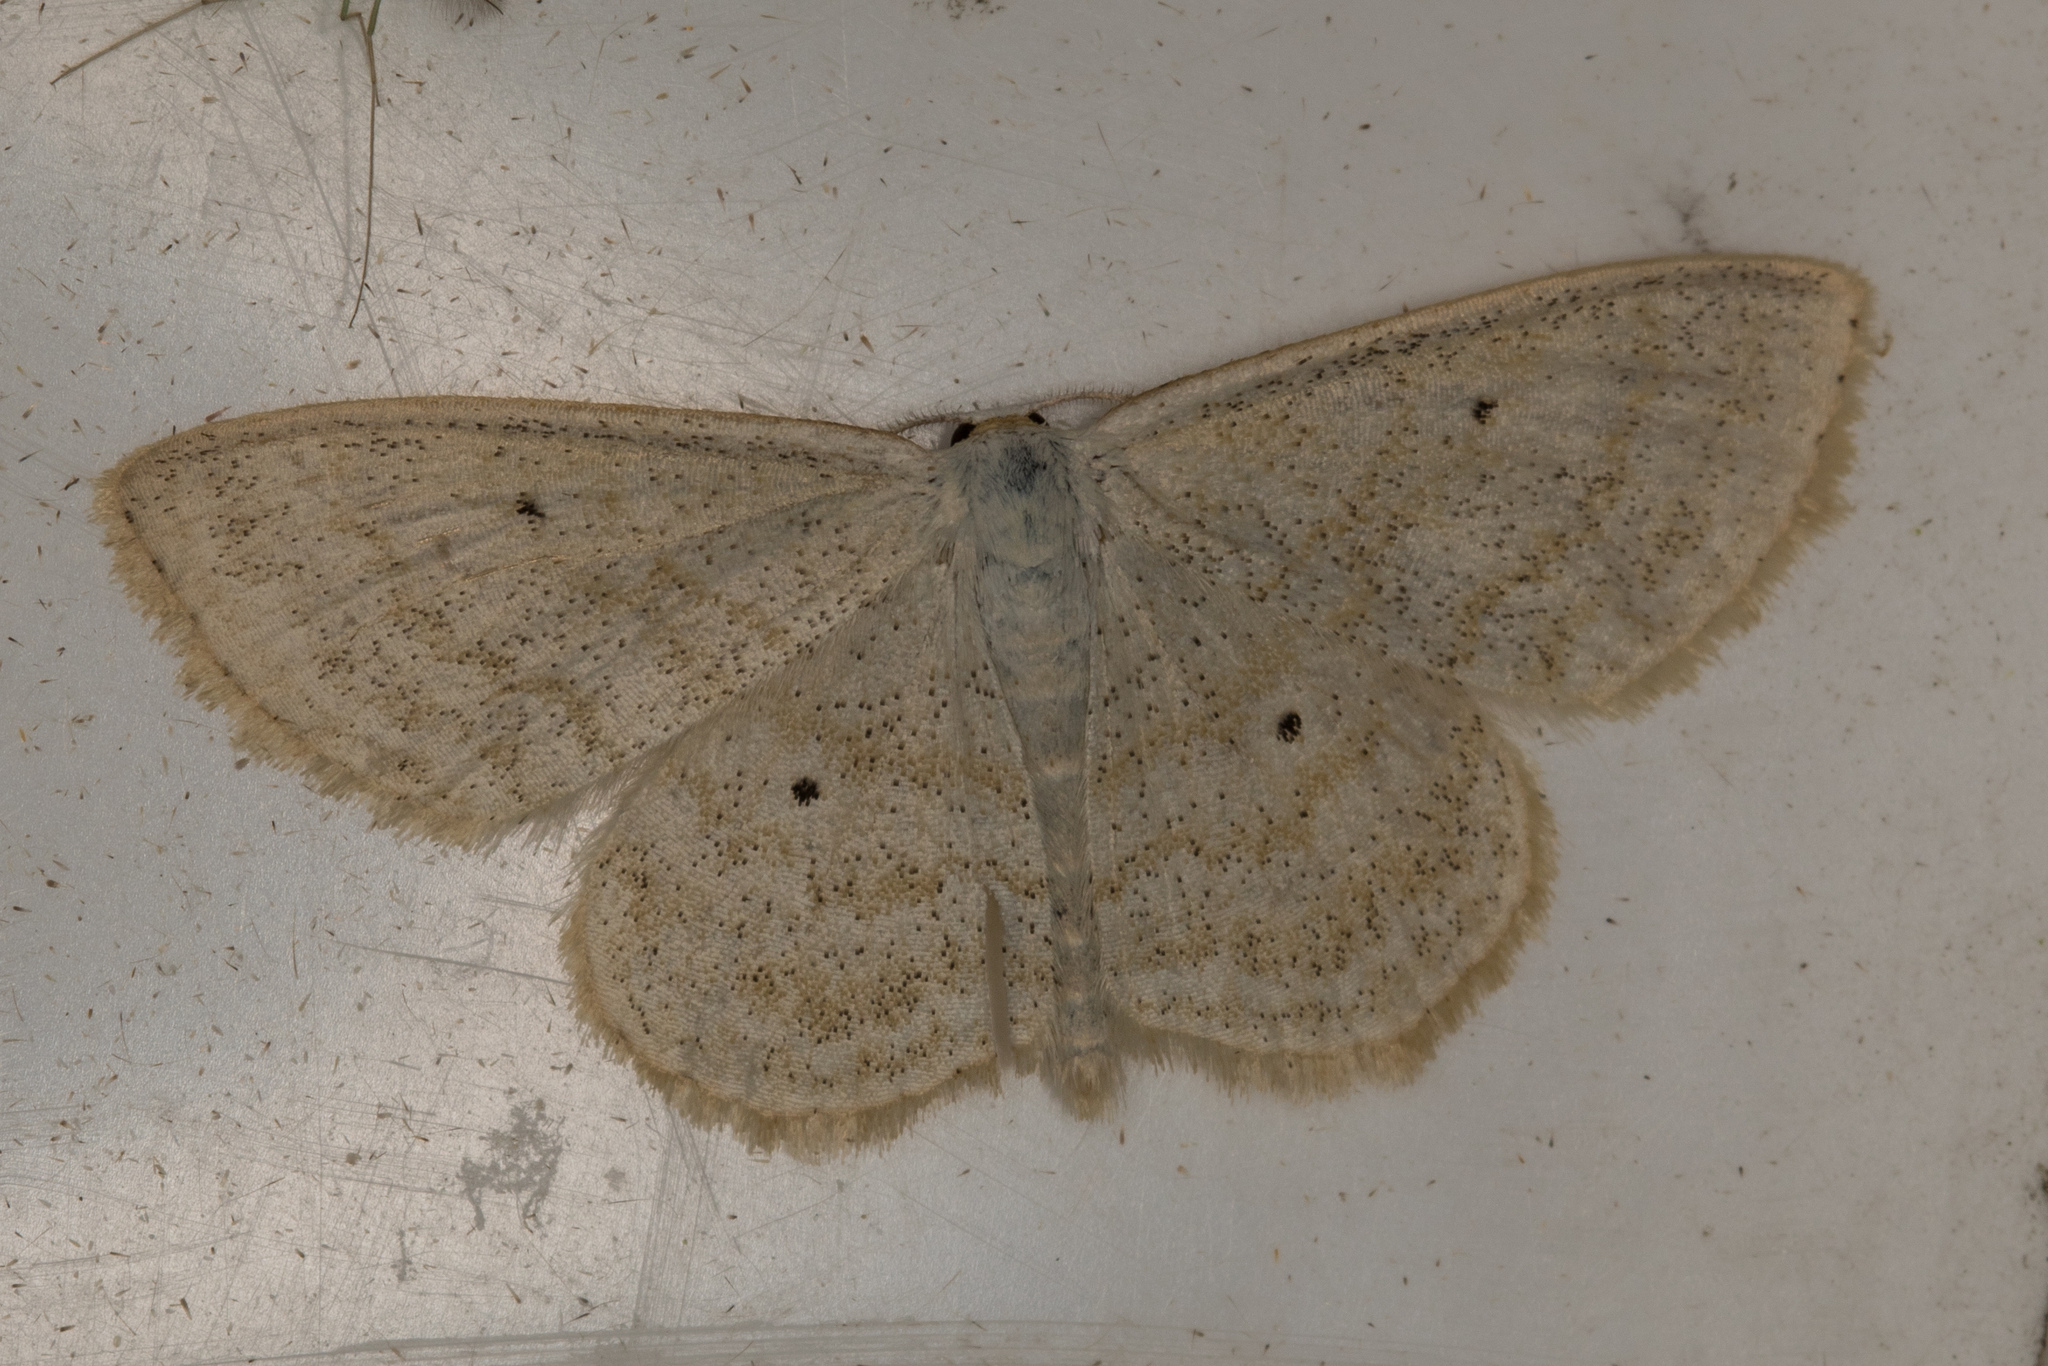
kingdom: Animalia
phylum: Arthropoda
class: Insecta
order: Lepidoptera
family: Geometridae
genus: Scopula
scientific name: Scopula immutata
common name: Lesser cream wave
